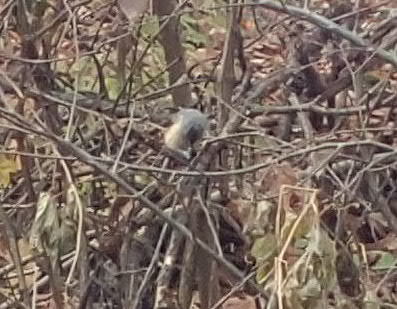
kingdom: Animalia
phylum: Chordata
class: Aves
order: Passeriformes
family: Paridae
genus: Baeolophus
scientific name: Baeolophus bicolor
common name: Tufted titmouse
